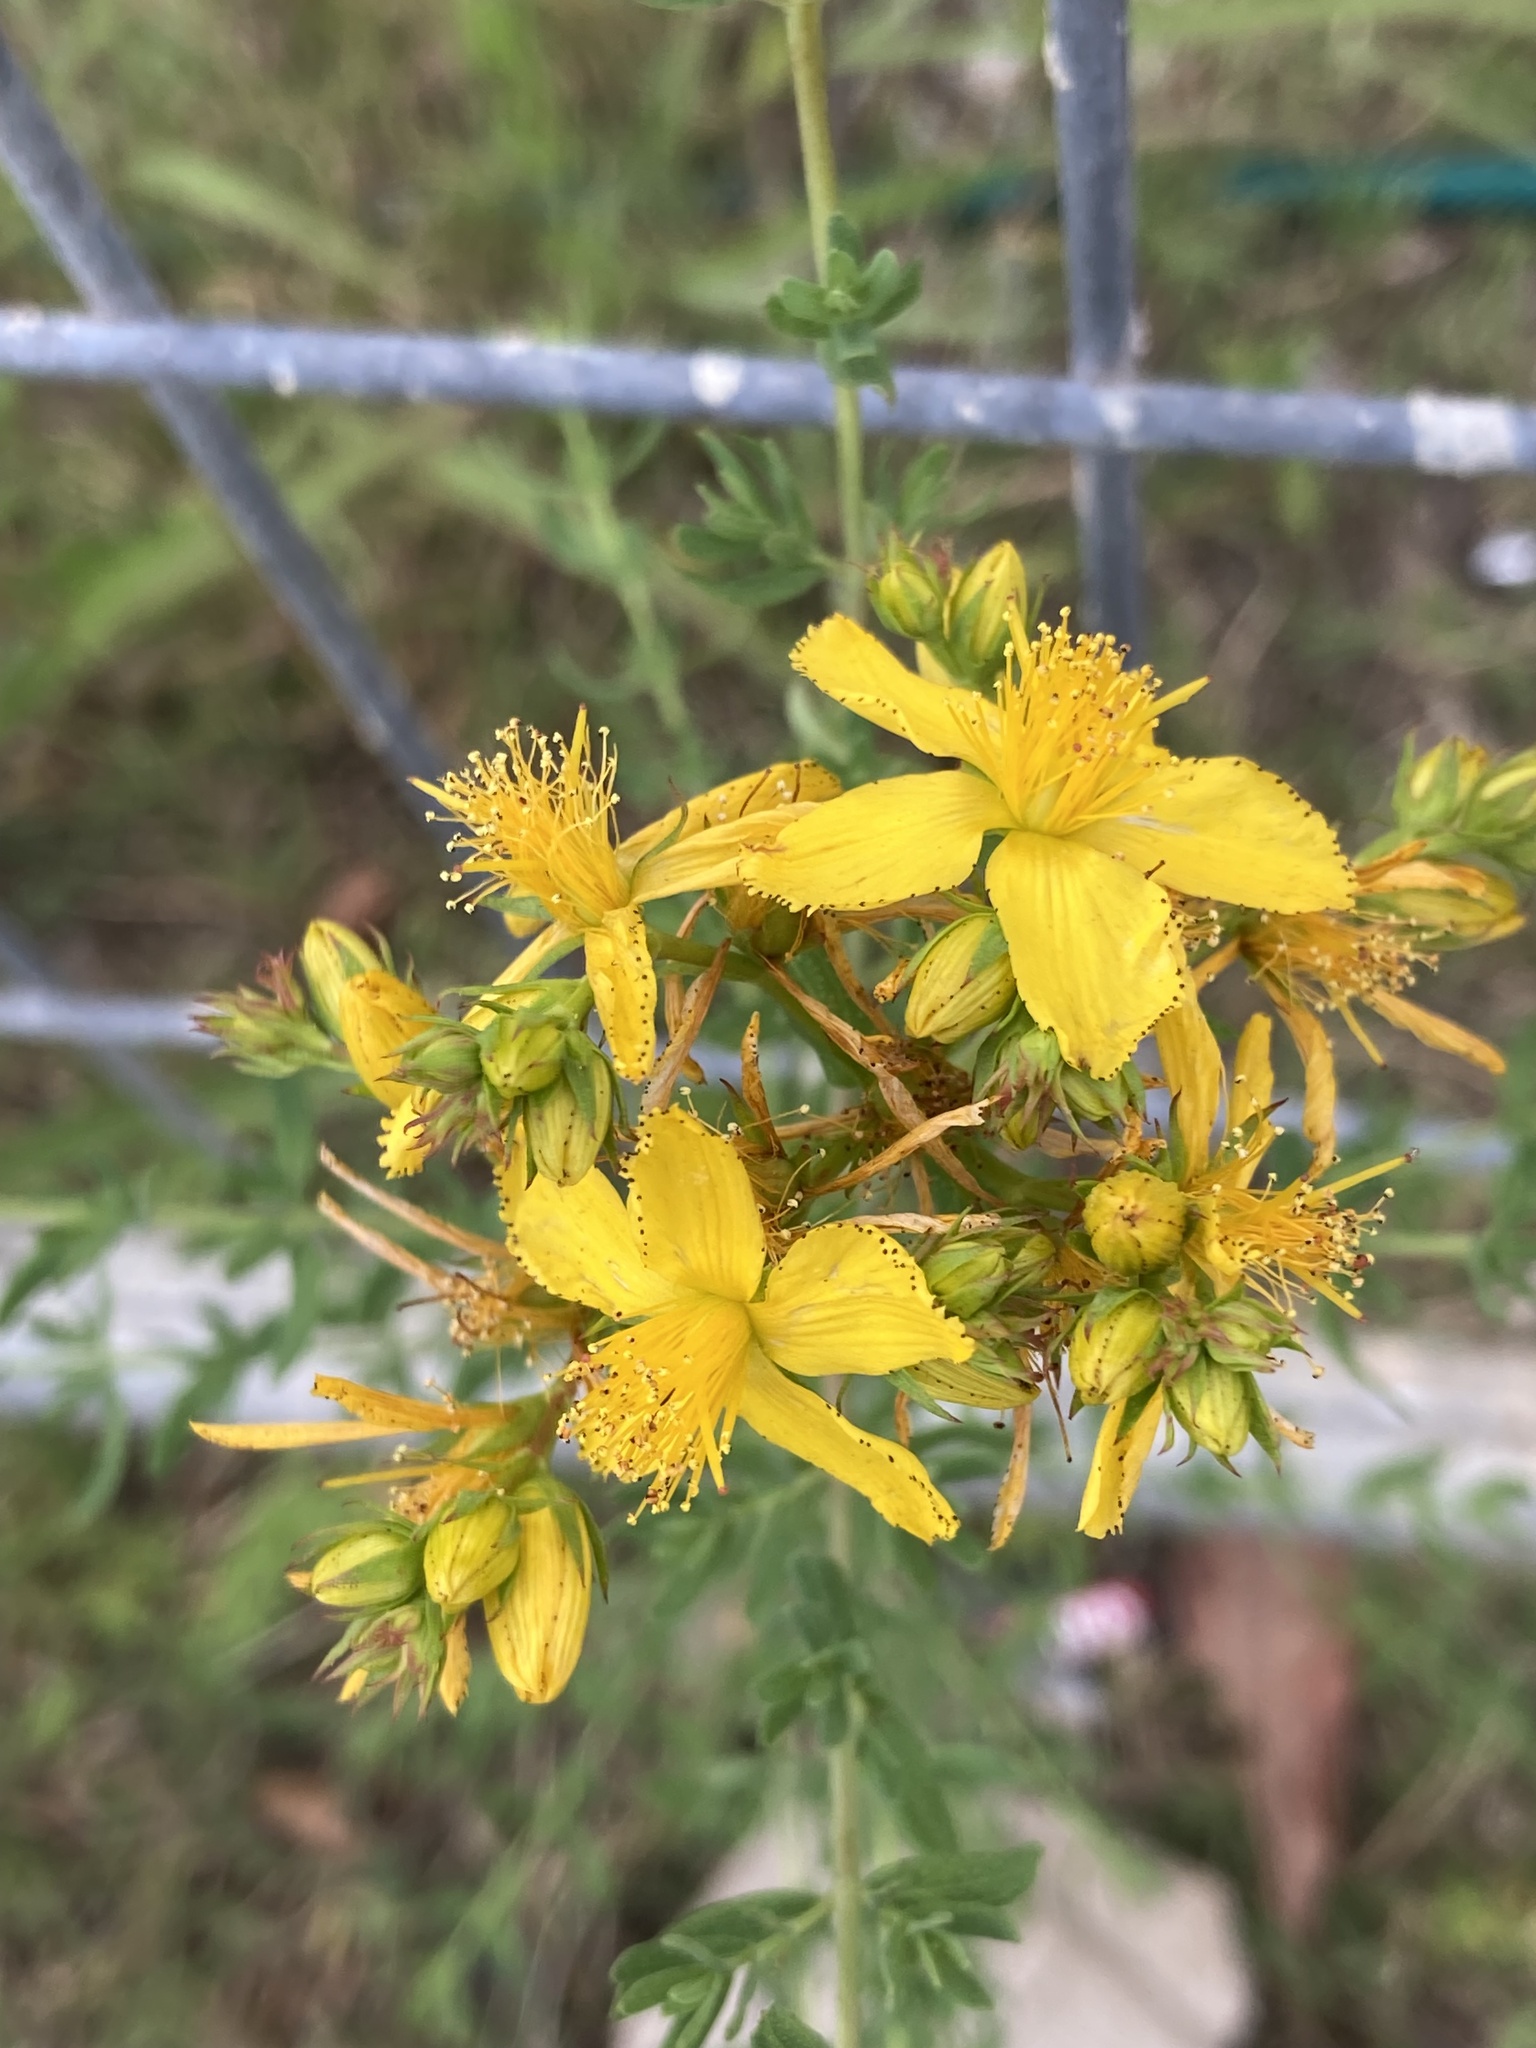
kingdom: Plantae
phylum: Tracheophyta
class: Magnoliopsida
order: Malpighiales
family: Hypericaceae
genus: Hypericum
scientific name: Hypericum perforatum
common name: Common st. johnswort
